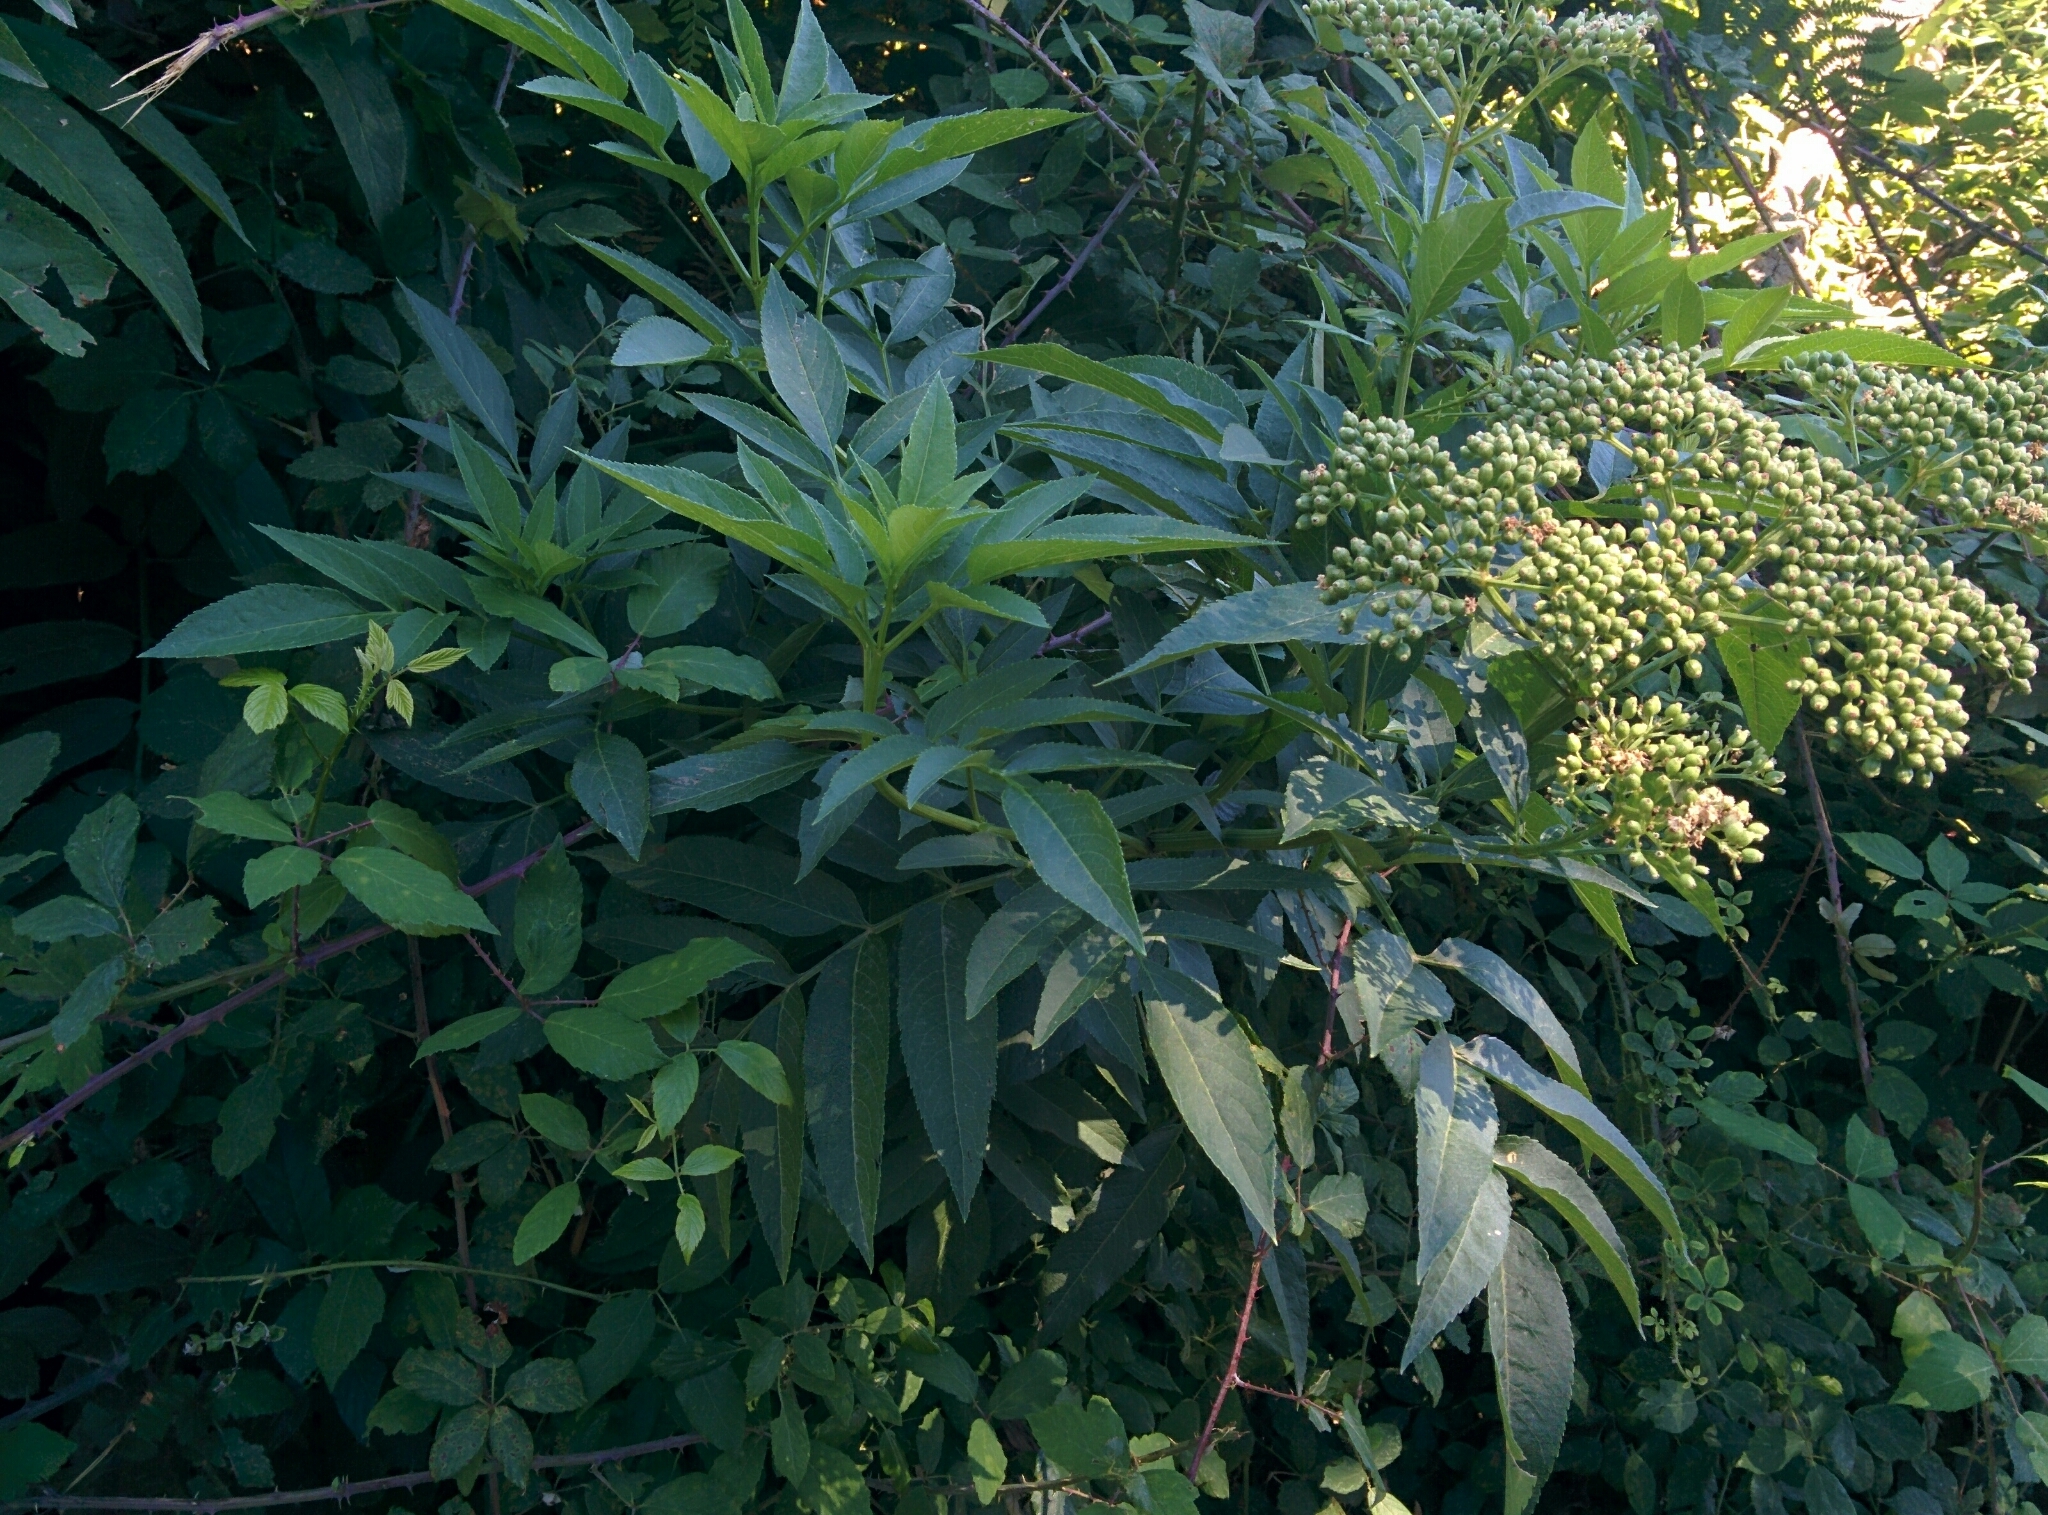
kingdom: Plantae
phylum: Tracheophyta
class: Magnoliopsida
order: Dipsacales
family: Viburnaceae
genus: Sambucus
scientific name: Sambucus nigra
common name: Elder
